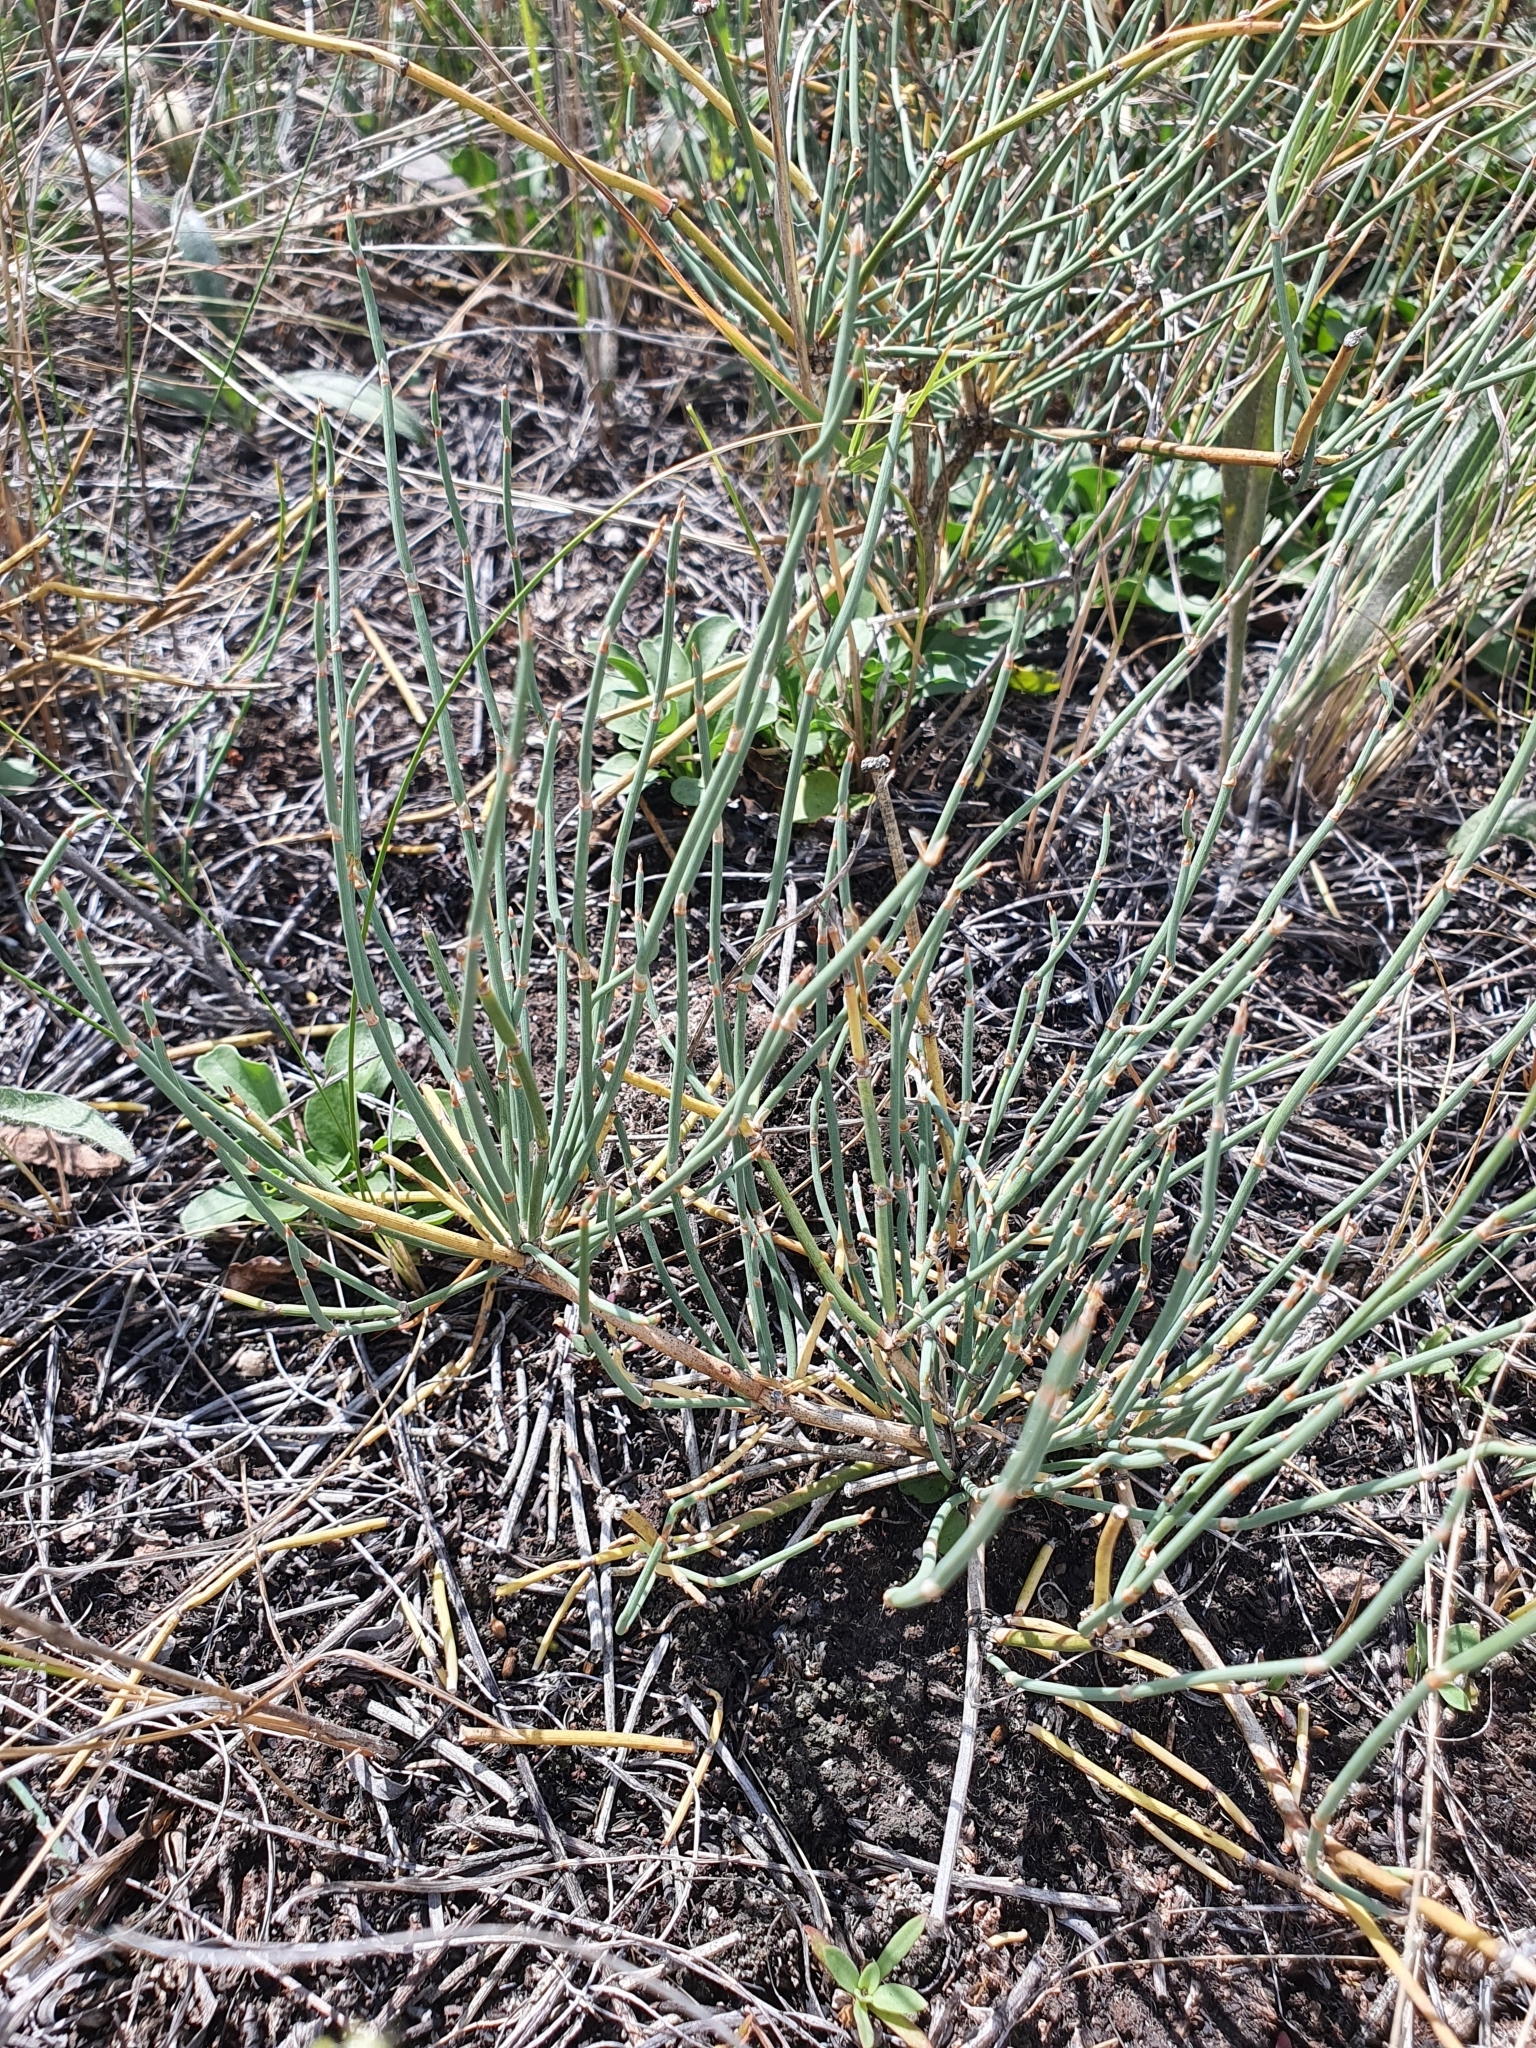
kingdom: Plantae
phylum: Tracheophyta
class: Gnetopsida
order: Ephedrales
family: Ephedraceae
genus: Ephedra
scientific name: Ephedra distachya
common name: Sea grape
